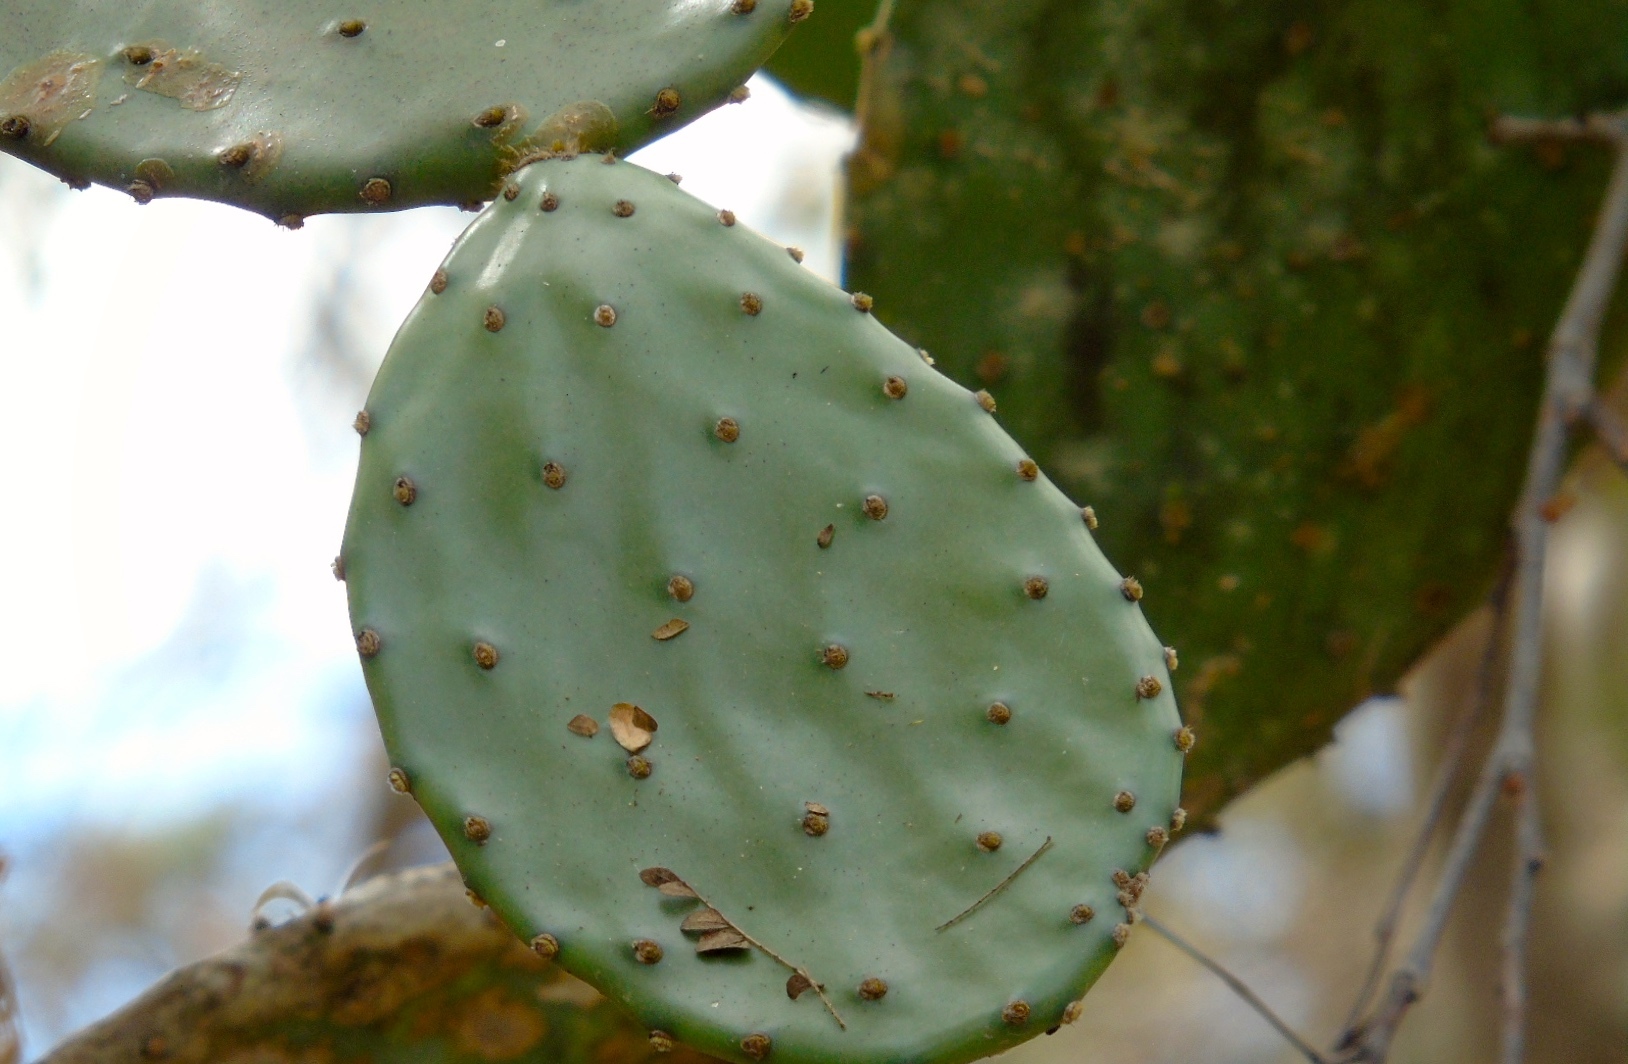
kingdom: Plantae
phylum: Tracheophyta
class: Magnoliopsida
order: Caryophyllales
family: Cactaceae
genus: Opuntia
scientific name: Opuntia
